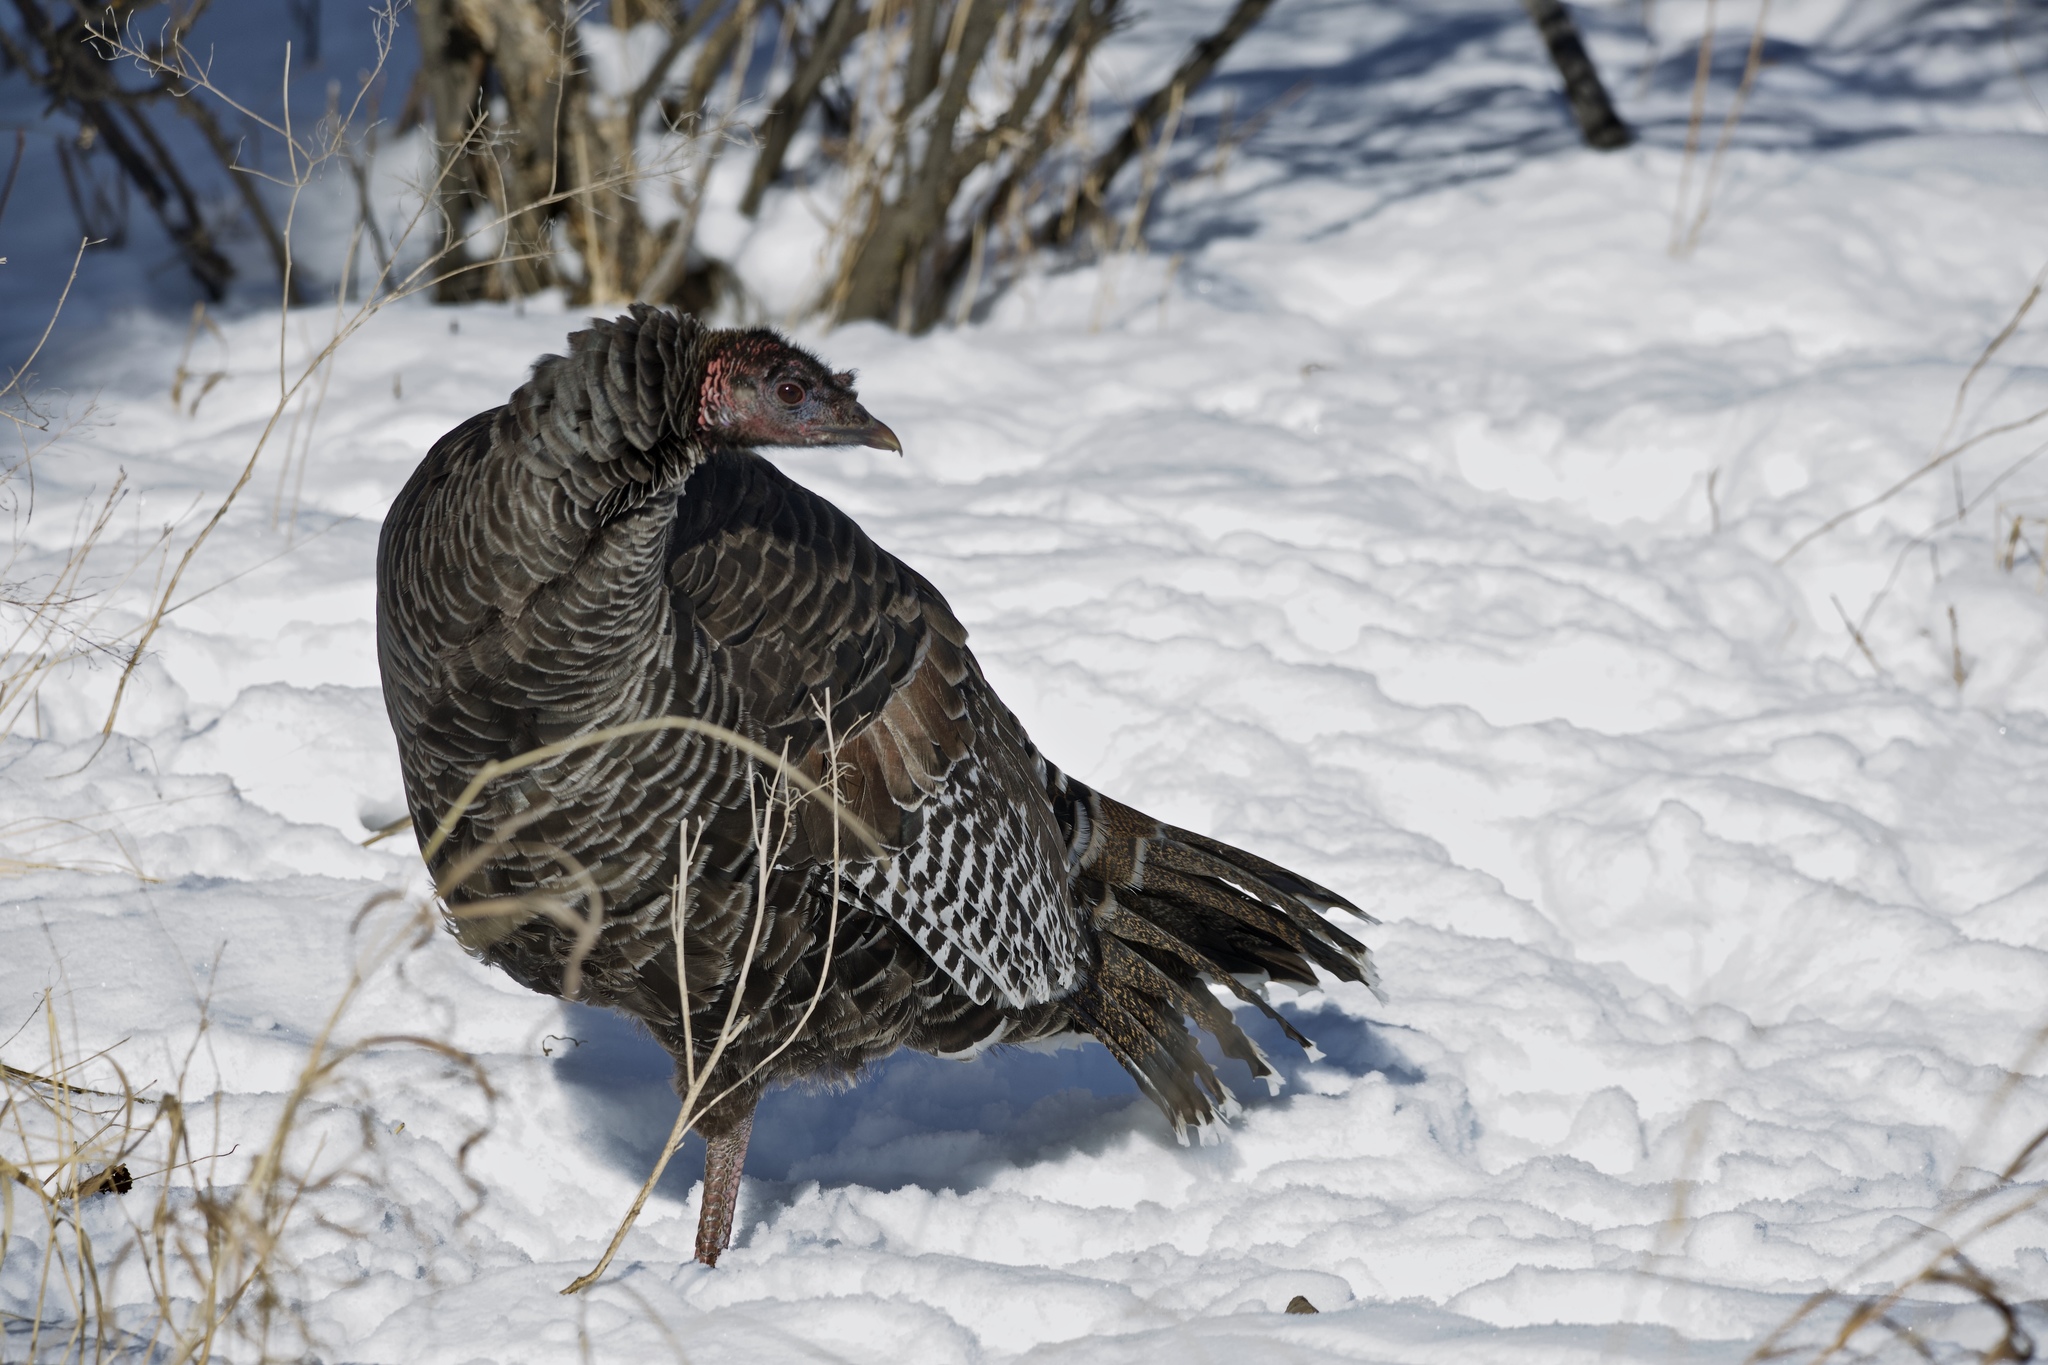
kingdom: Animalia
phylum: Chordata
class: Aves
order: Galliformes
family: Phasianidae
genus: Meleagris
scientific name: Meleagris gallopavo
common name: Wild turkey
